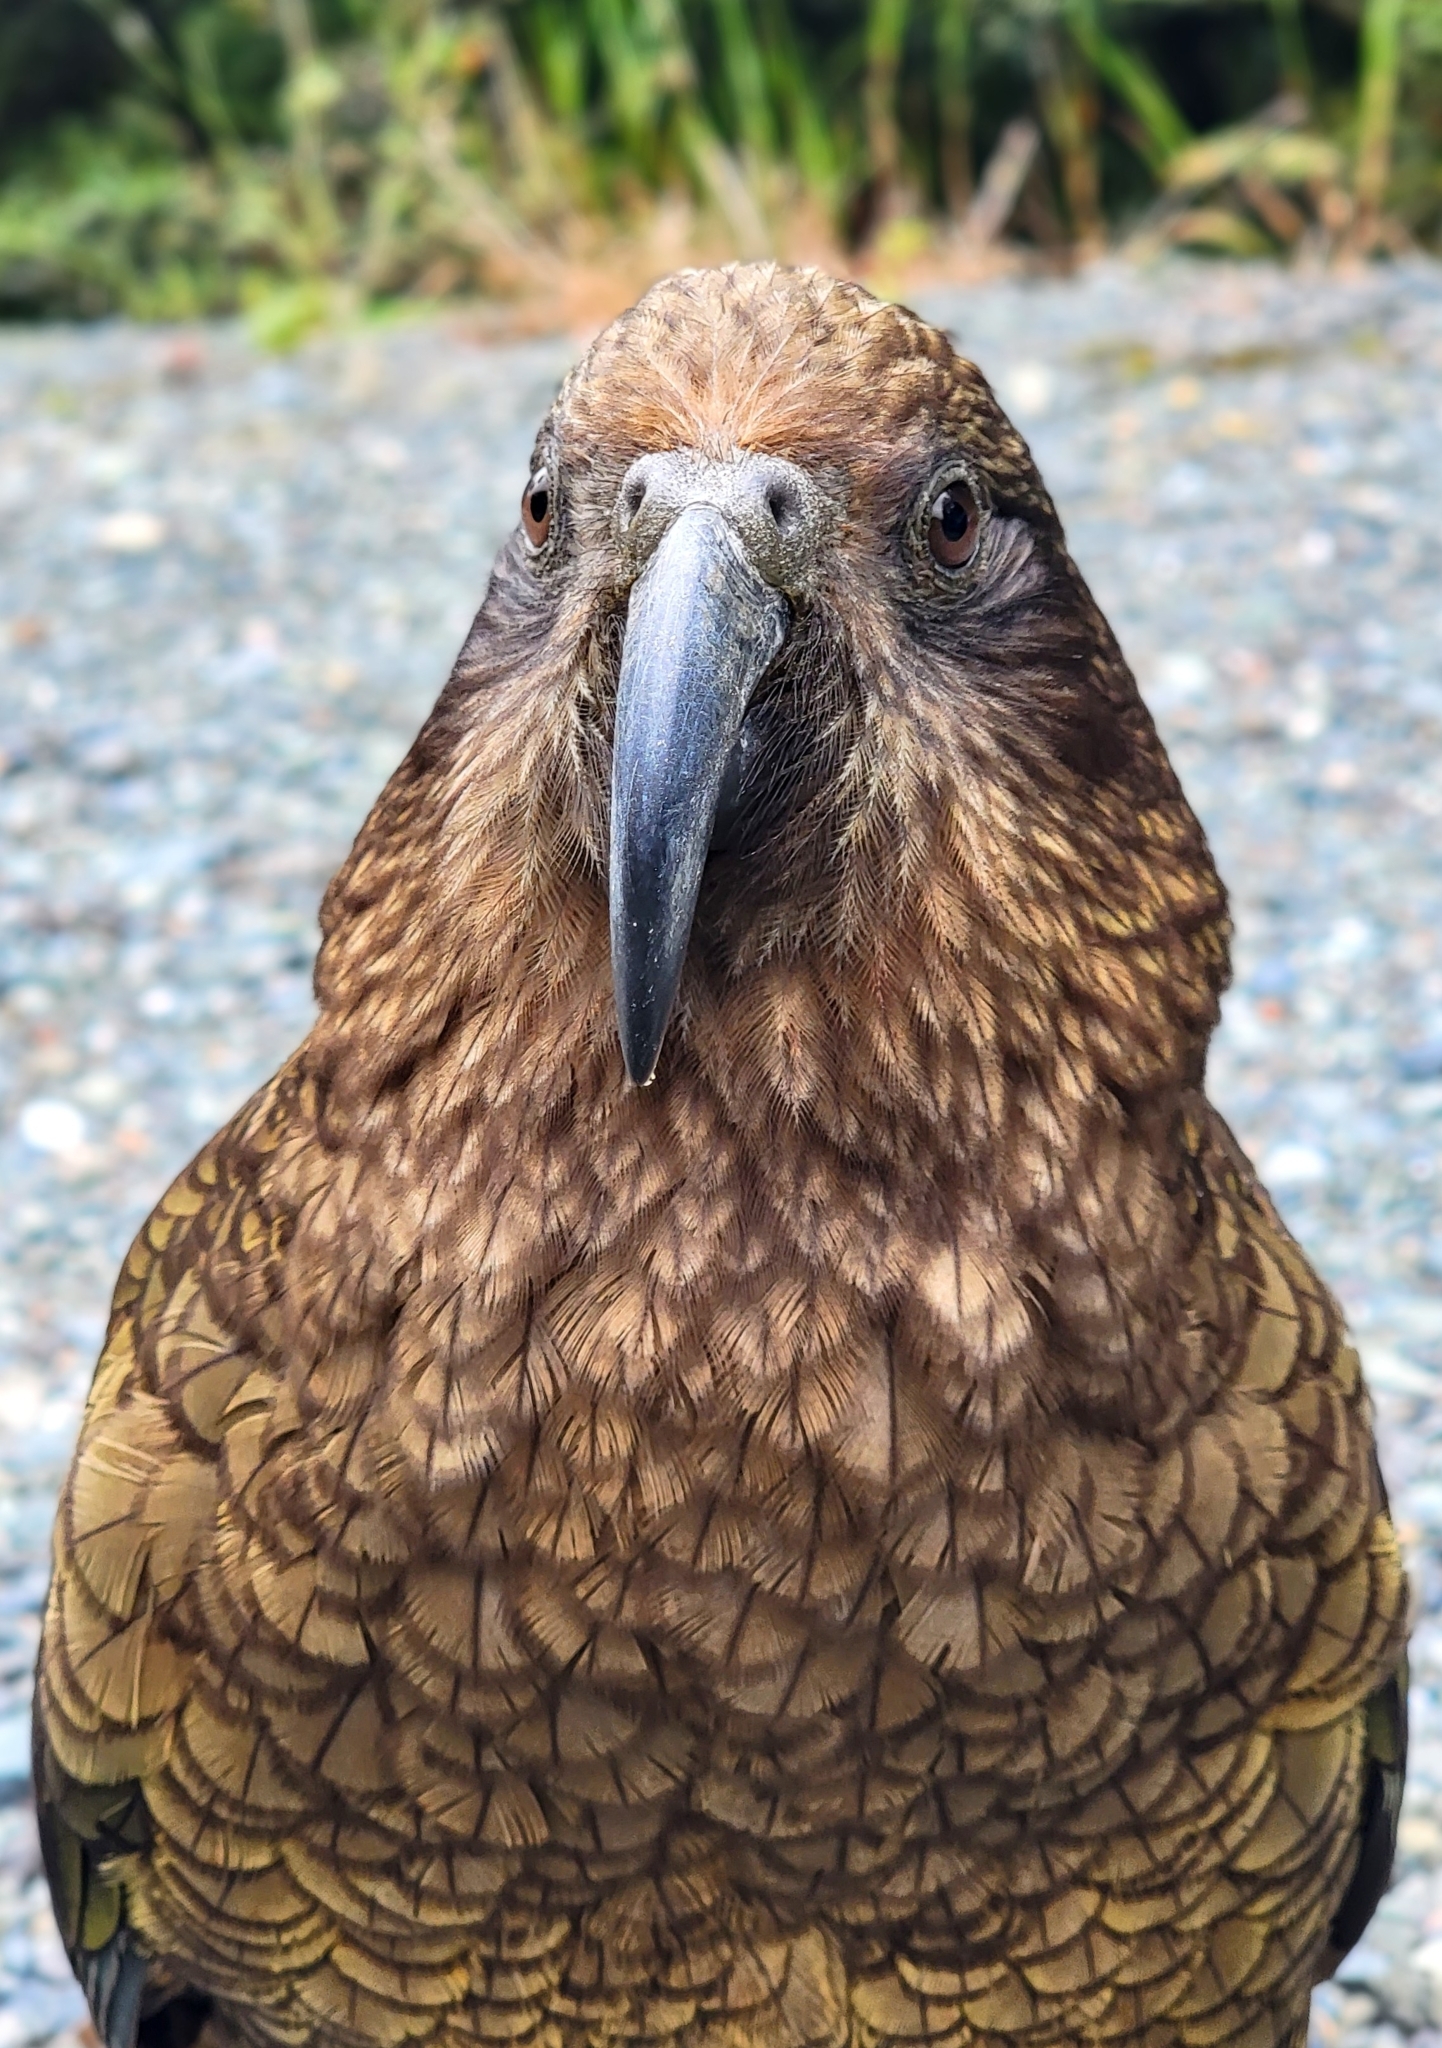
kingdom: Animalia
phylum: Chordata
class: Aves
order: Psittaciformes
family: Psittacidae
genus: Nestor
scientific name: Nestor notabilis
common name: Kea
